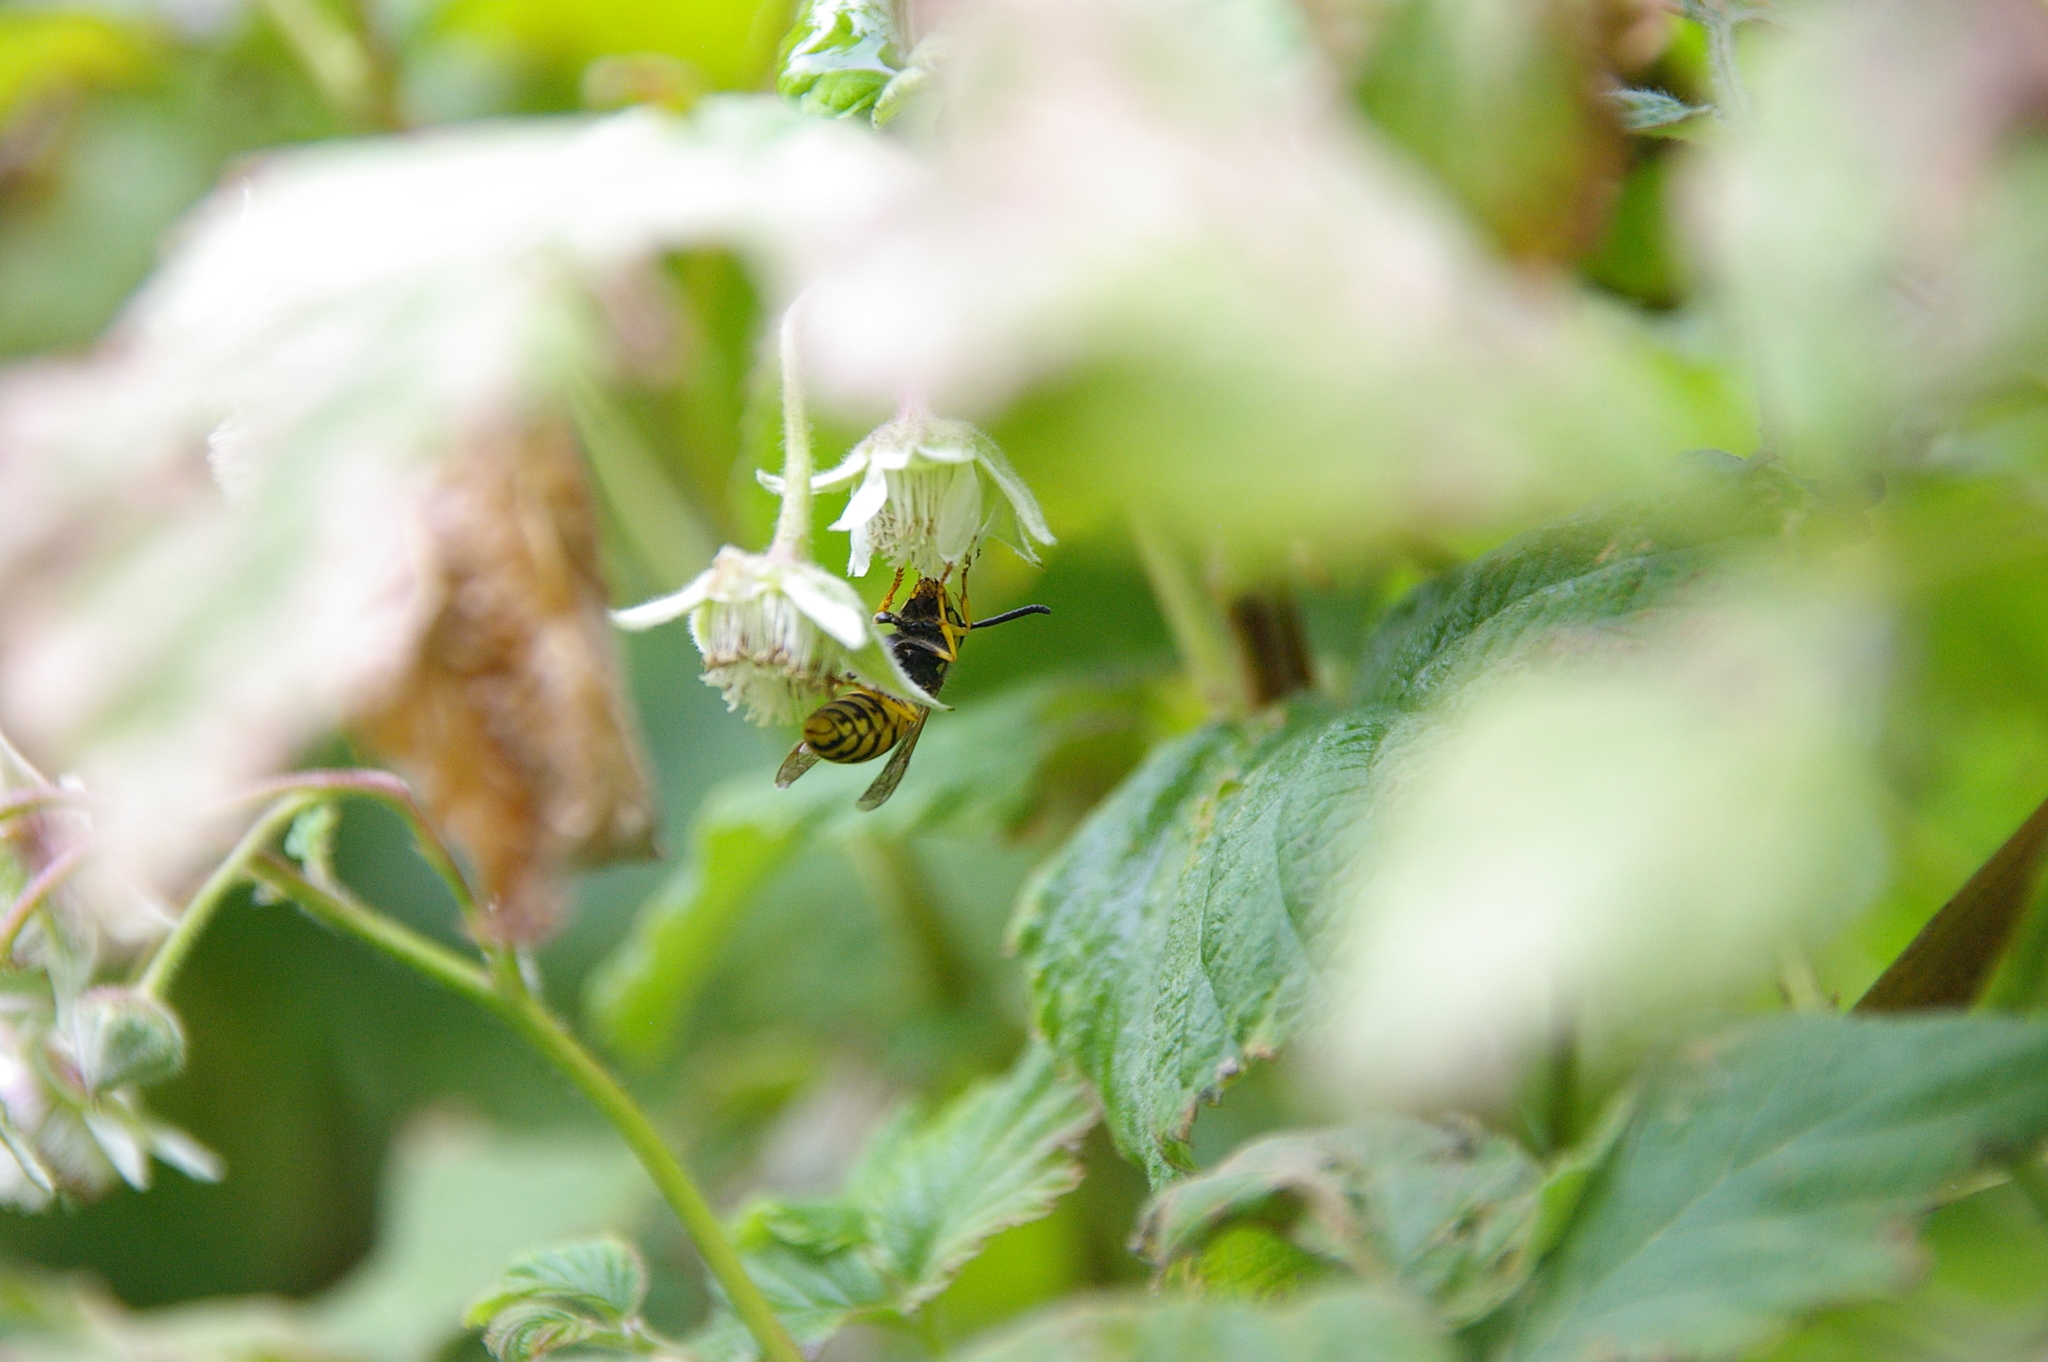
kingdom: Animalia
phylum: Arthropoda
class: Insecta
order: Hymenoptera
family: Vespidae
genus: Vespula
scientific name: Vespula germanica
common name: German wasp
